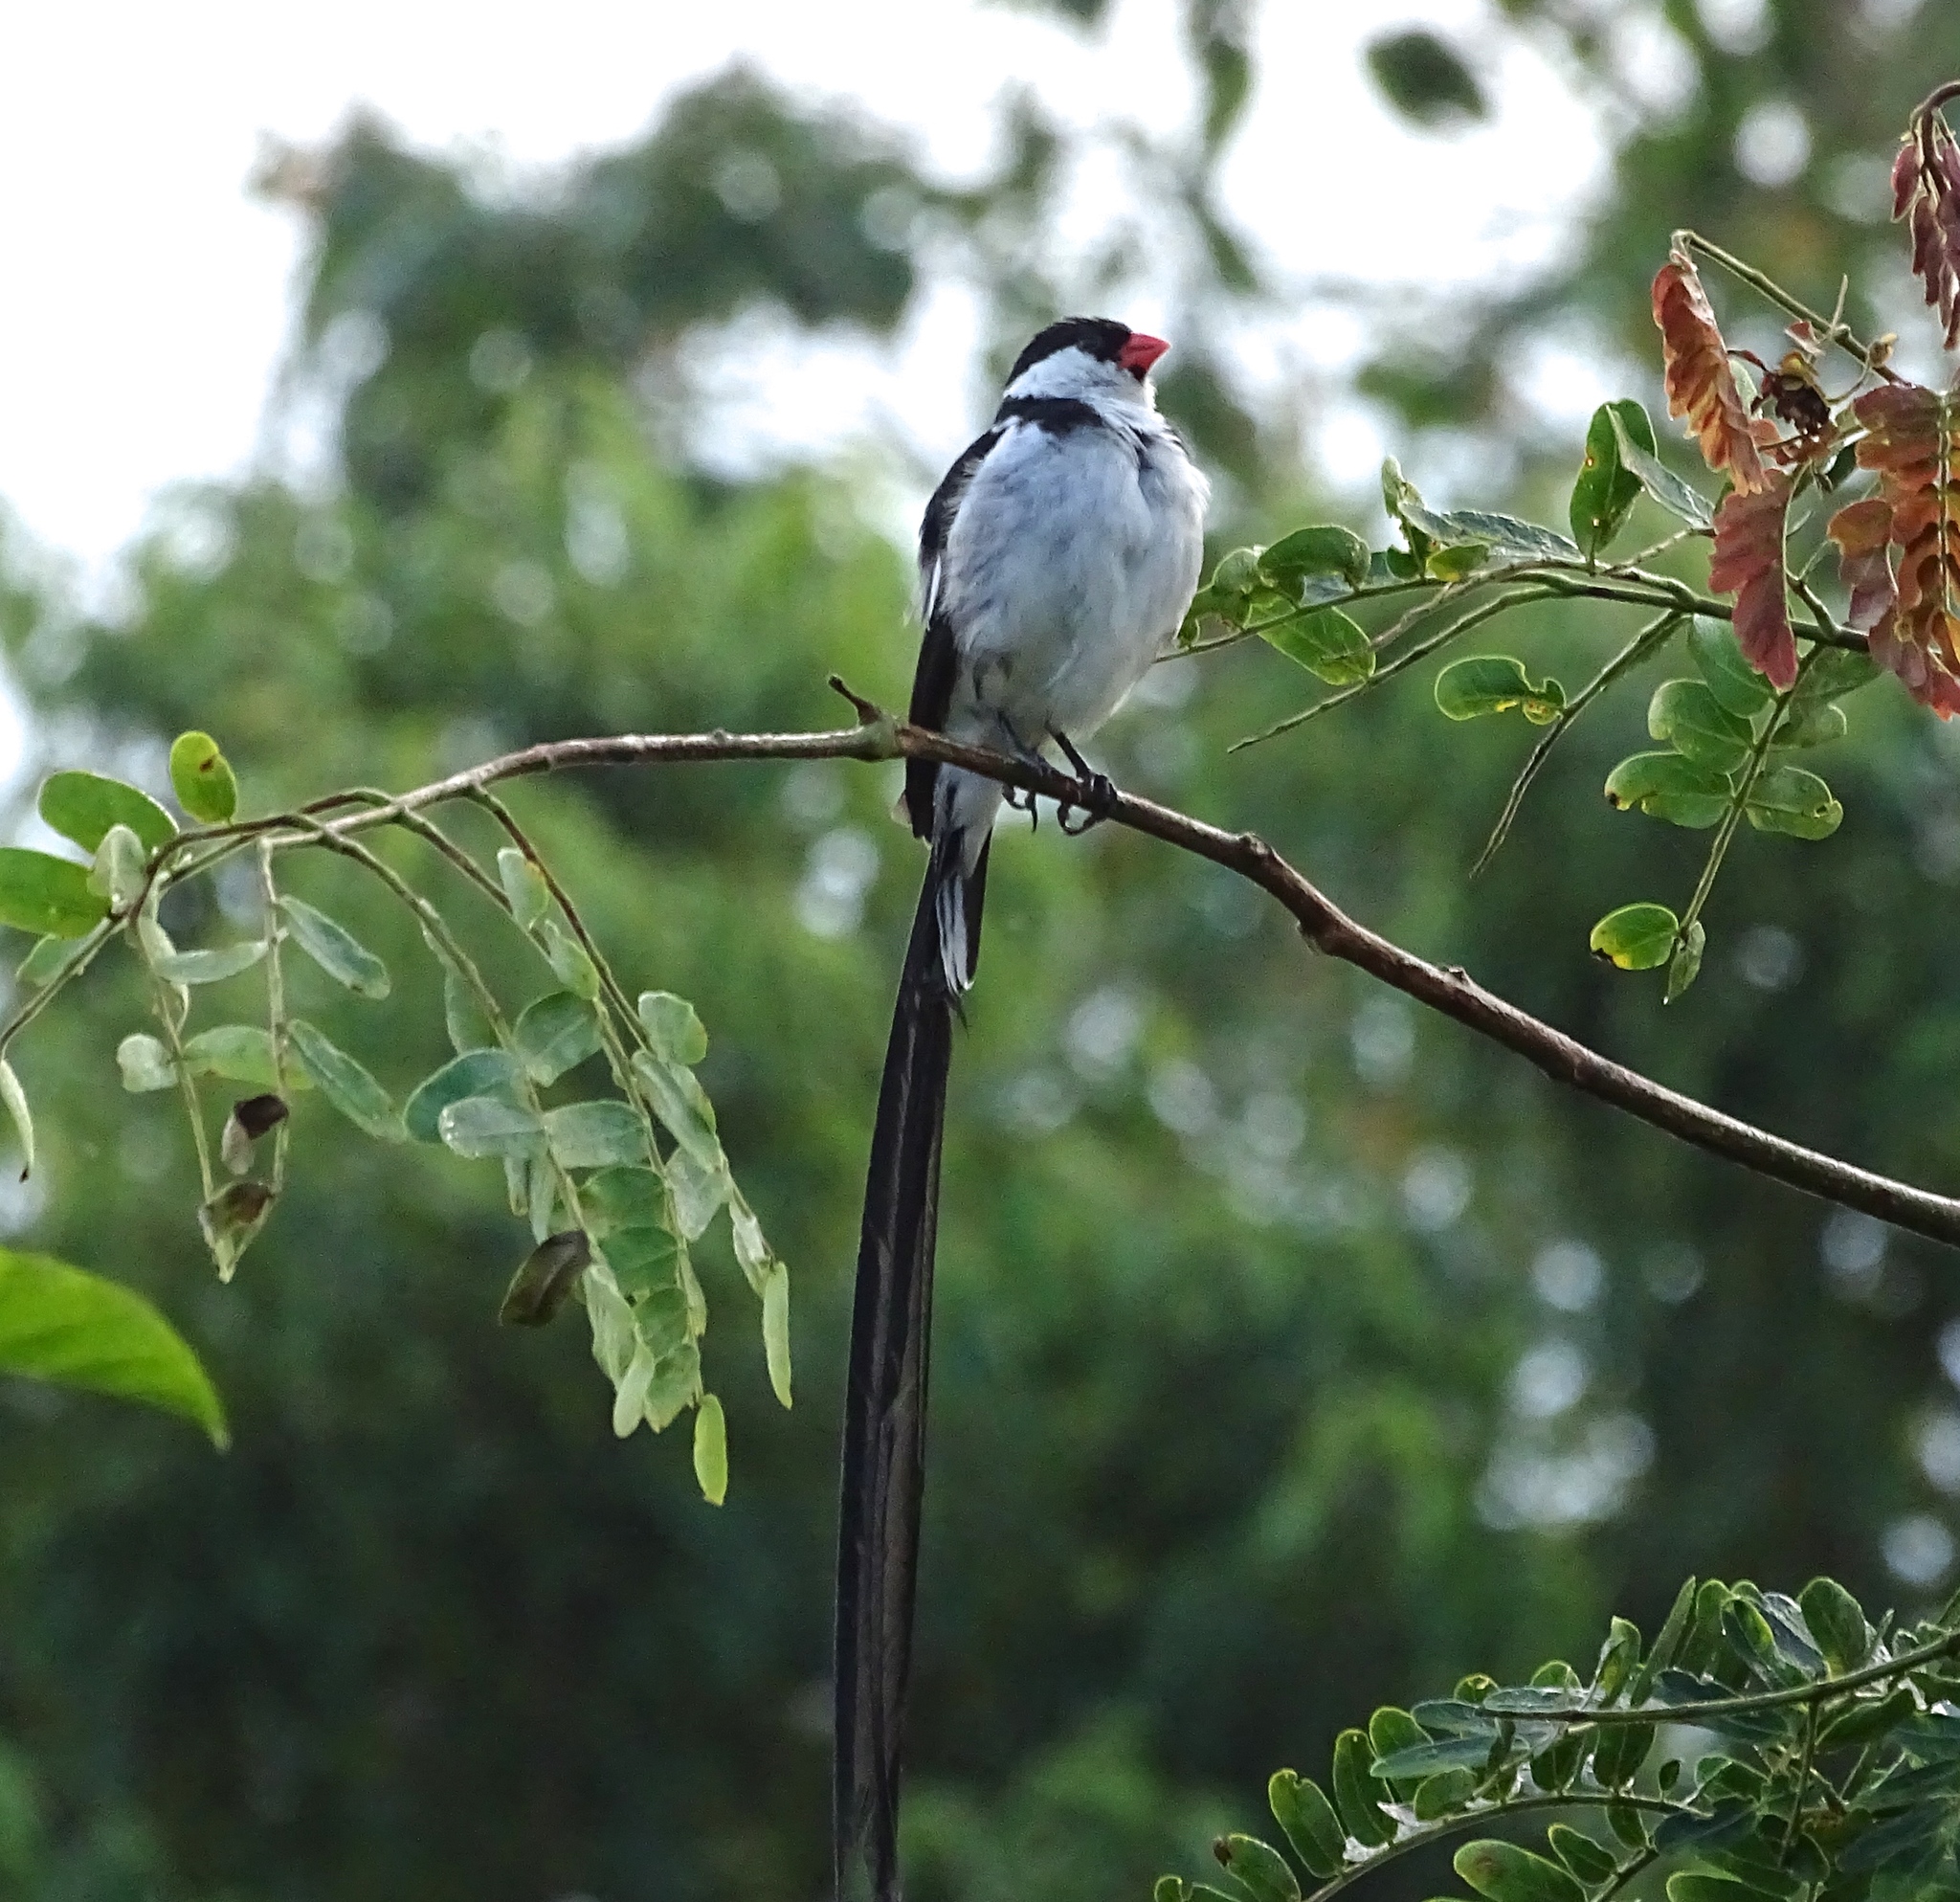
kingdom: Animalia
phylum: Chordata
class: Aves
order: Passeriformes
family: Viduidae
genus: Vidua
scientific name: Vidua macroura
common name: Pin-tailed whydah
